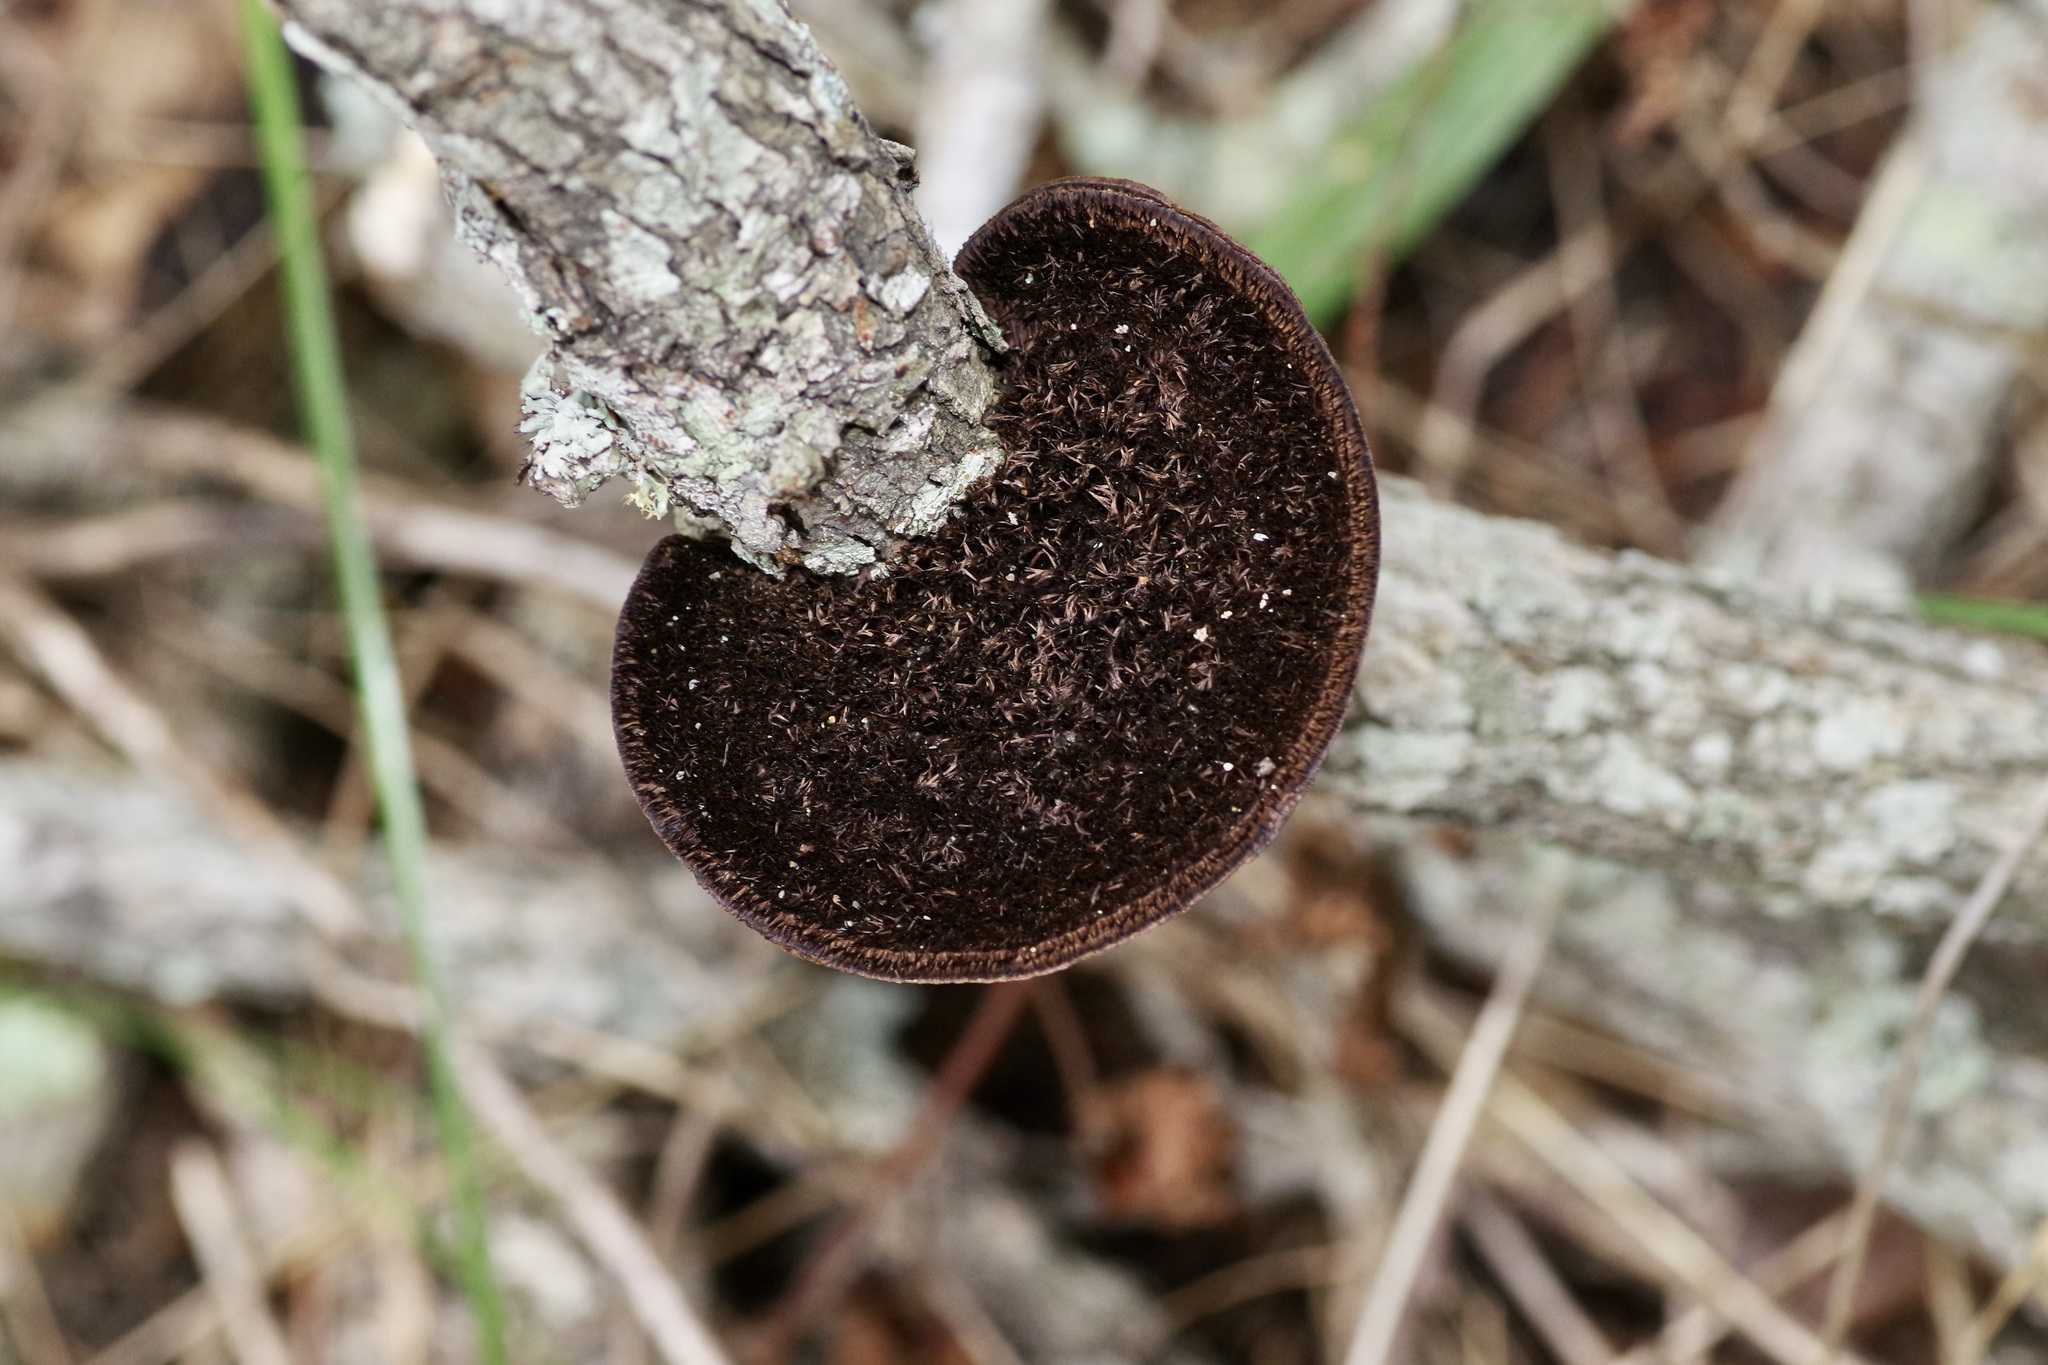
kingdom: Fungi
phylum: Basidiomycota
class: Agaricomycetes
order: Polyporales
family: Cerrenaceae
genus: Cerrena
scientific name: Cerrena hydnoides
